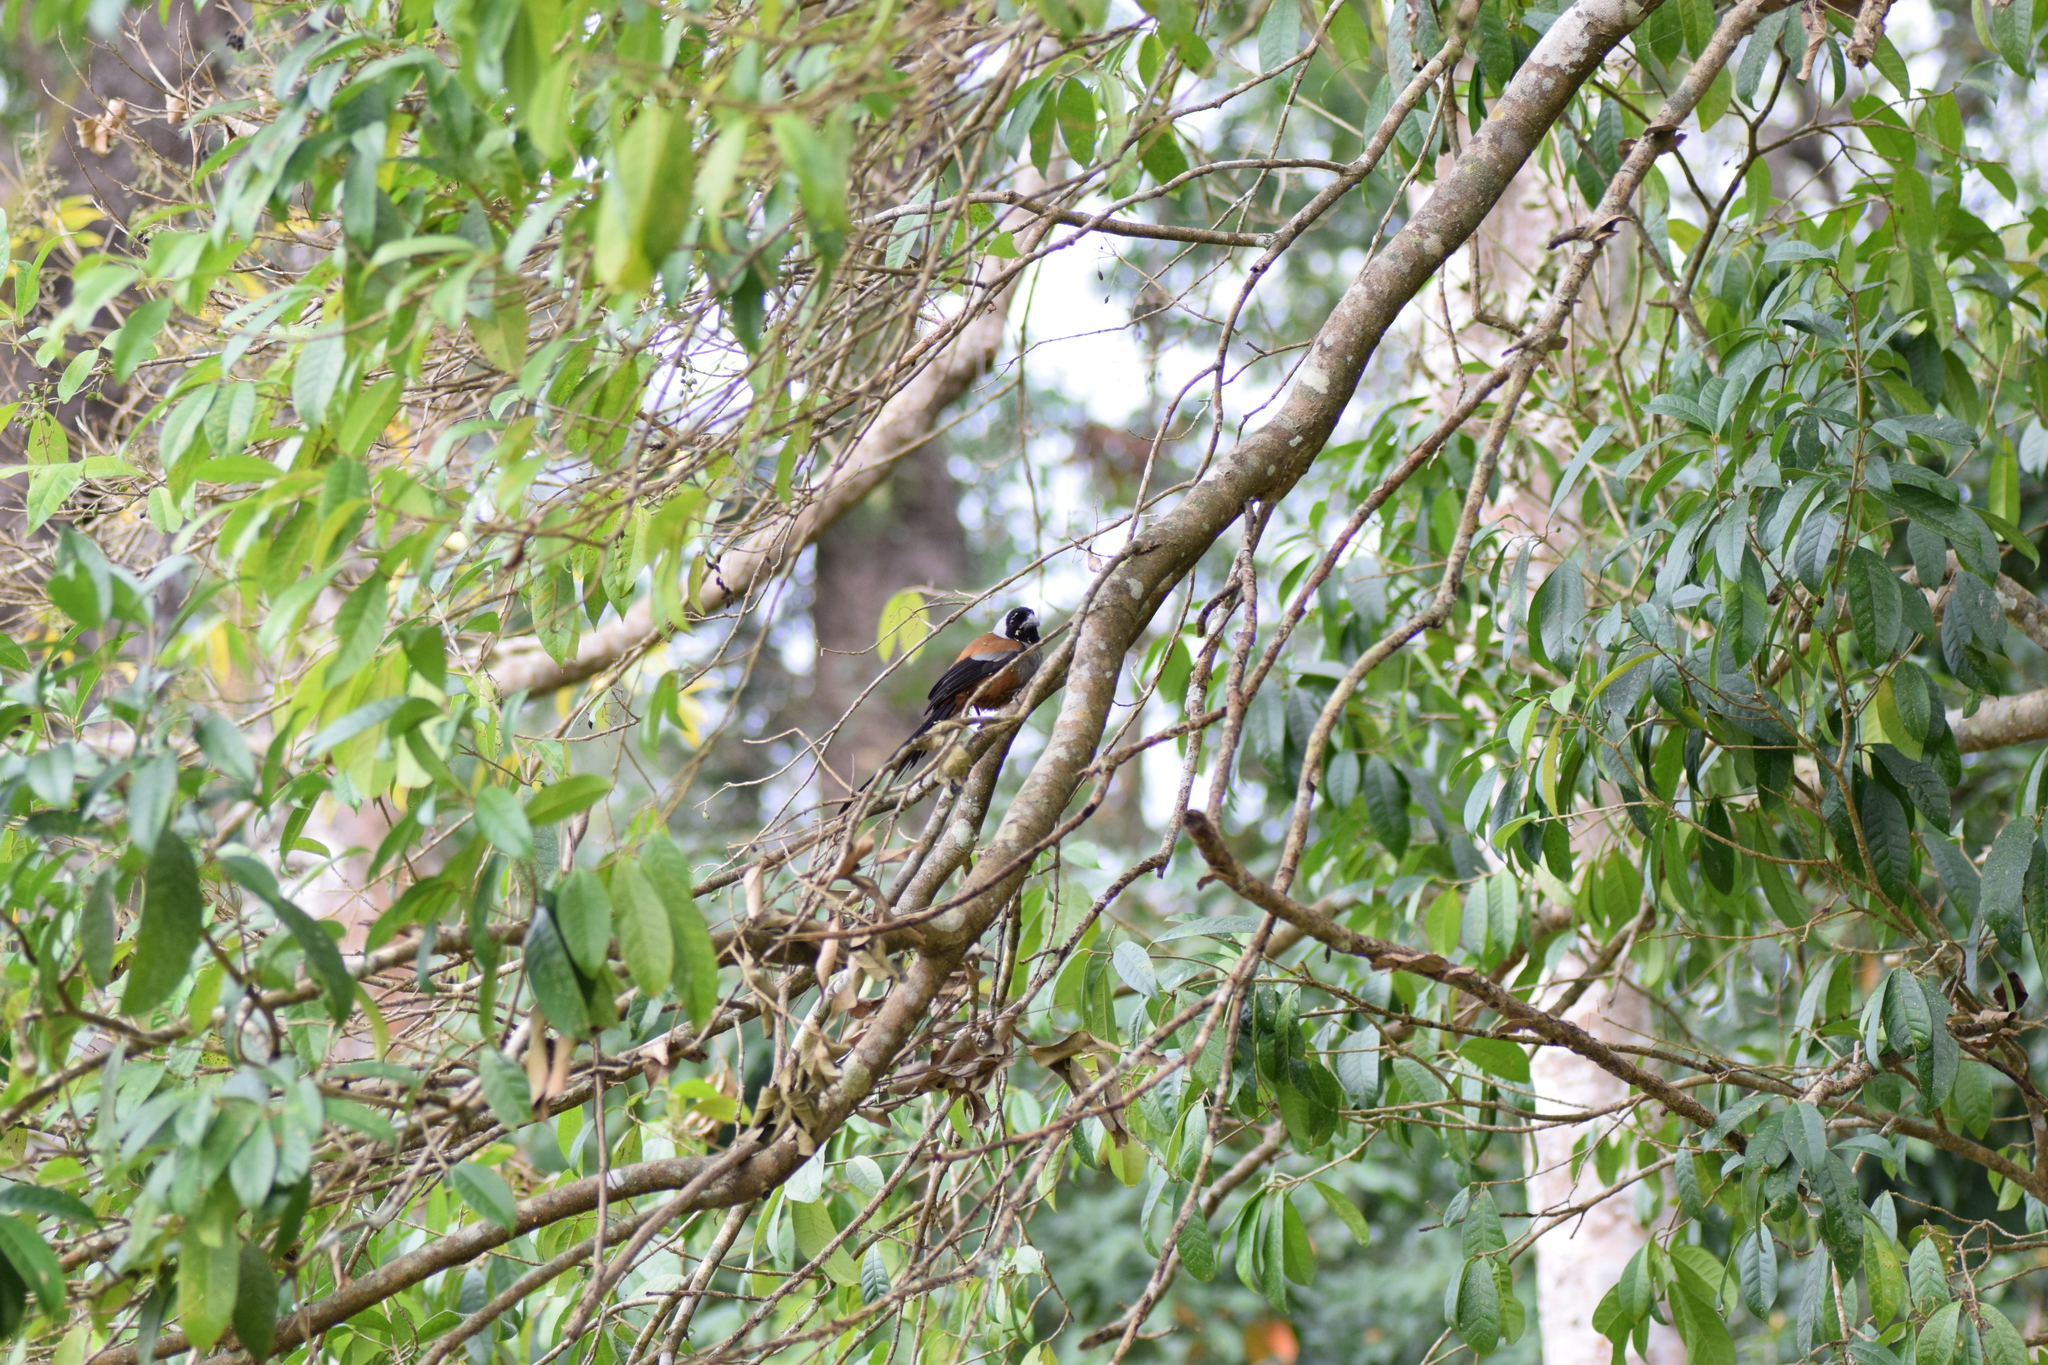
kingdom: Animalia
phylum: Chordata
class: Aves
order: Passeriformes
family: Corvidae
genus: Dendrocitta
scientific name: Dendrocitta frontalis
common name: Collared treepie
